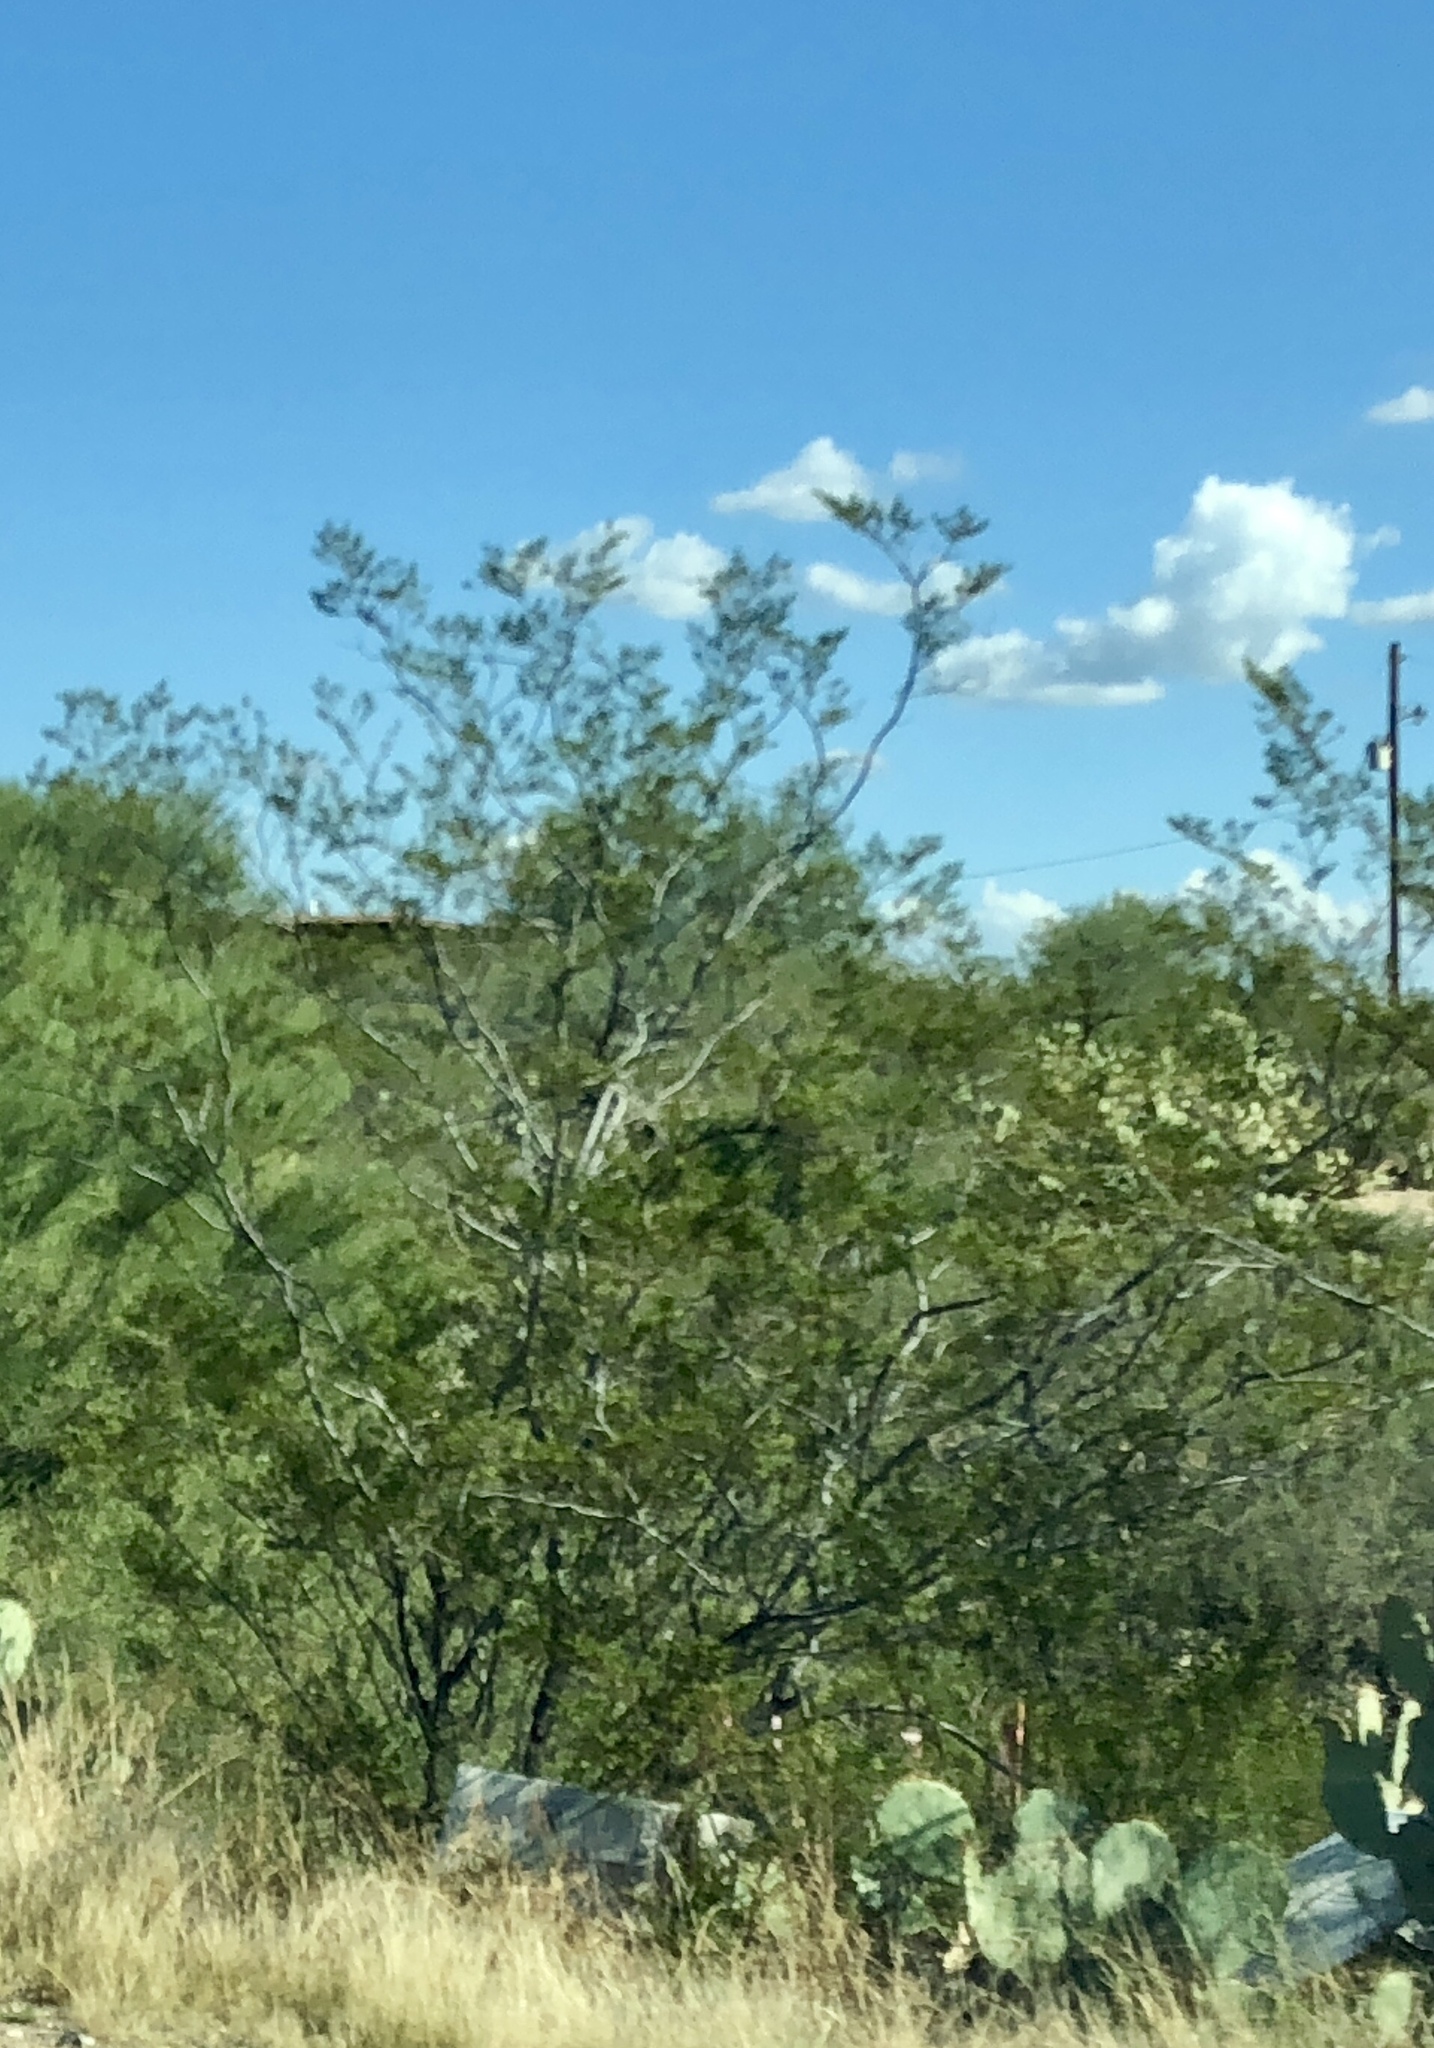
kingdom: Plantae
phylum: Tracheophyta
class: Magnoliopsida
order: Zygophyllales
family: Zygophyllaceae
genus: Larrea
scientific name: Larrea tridentata
